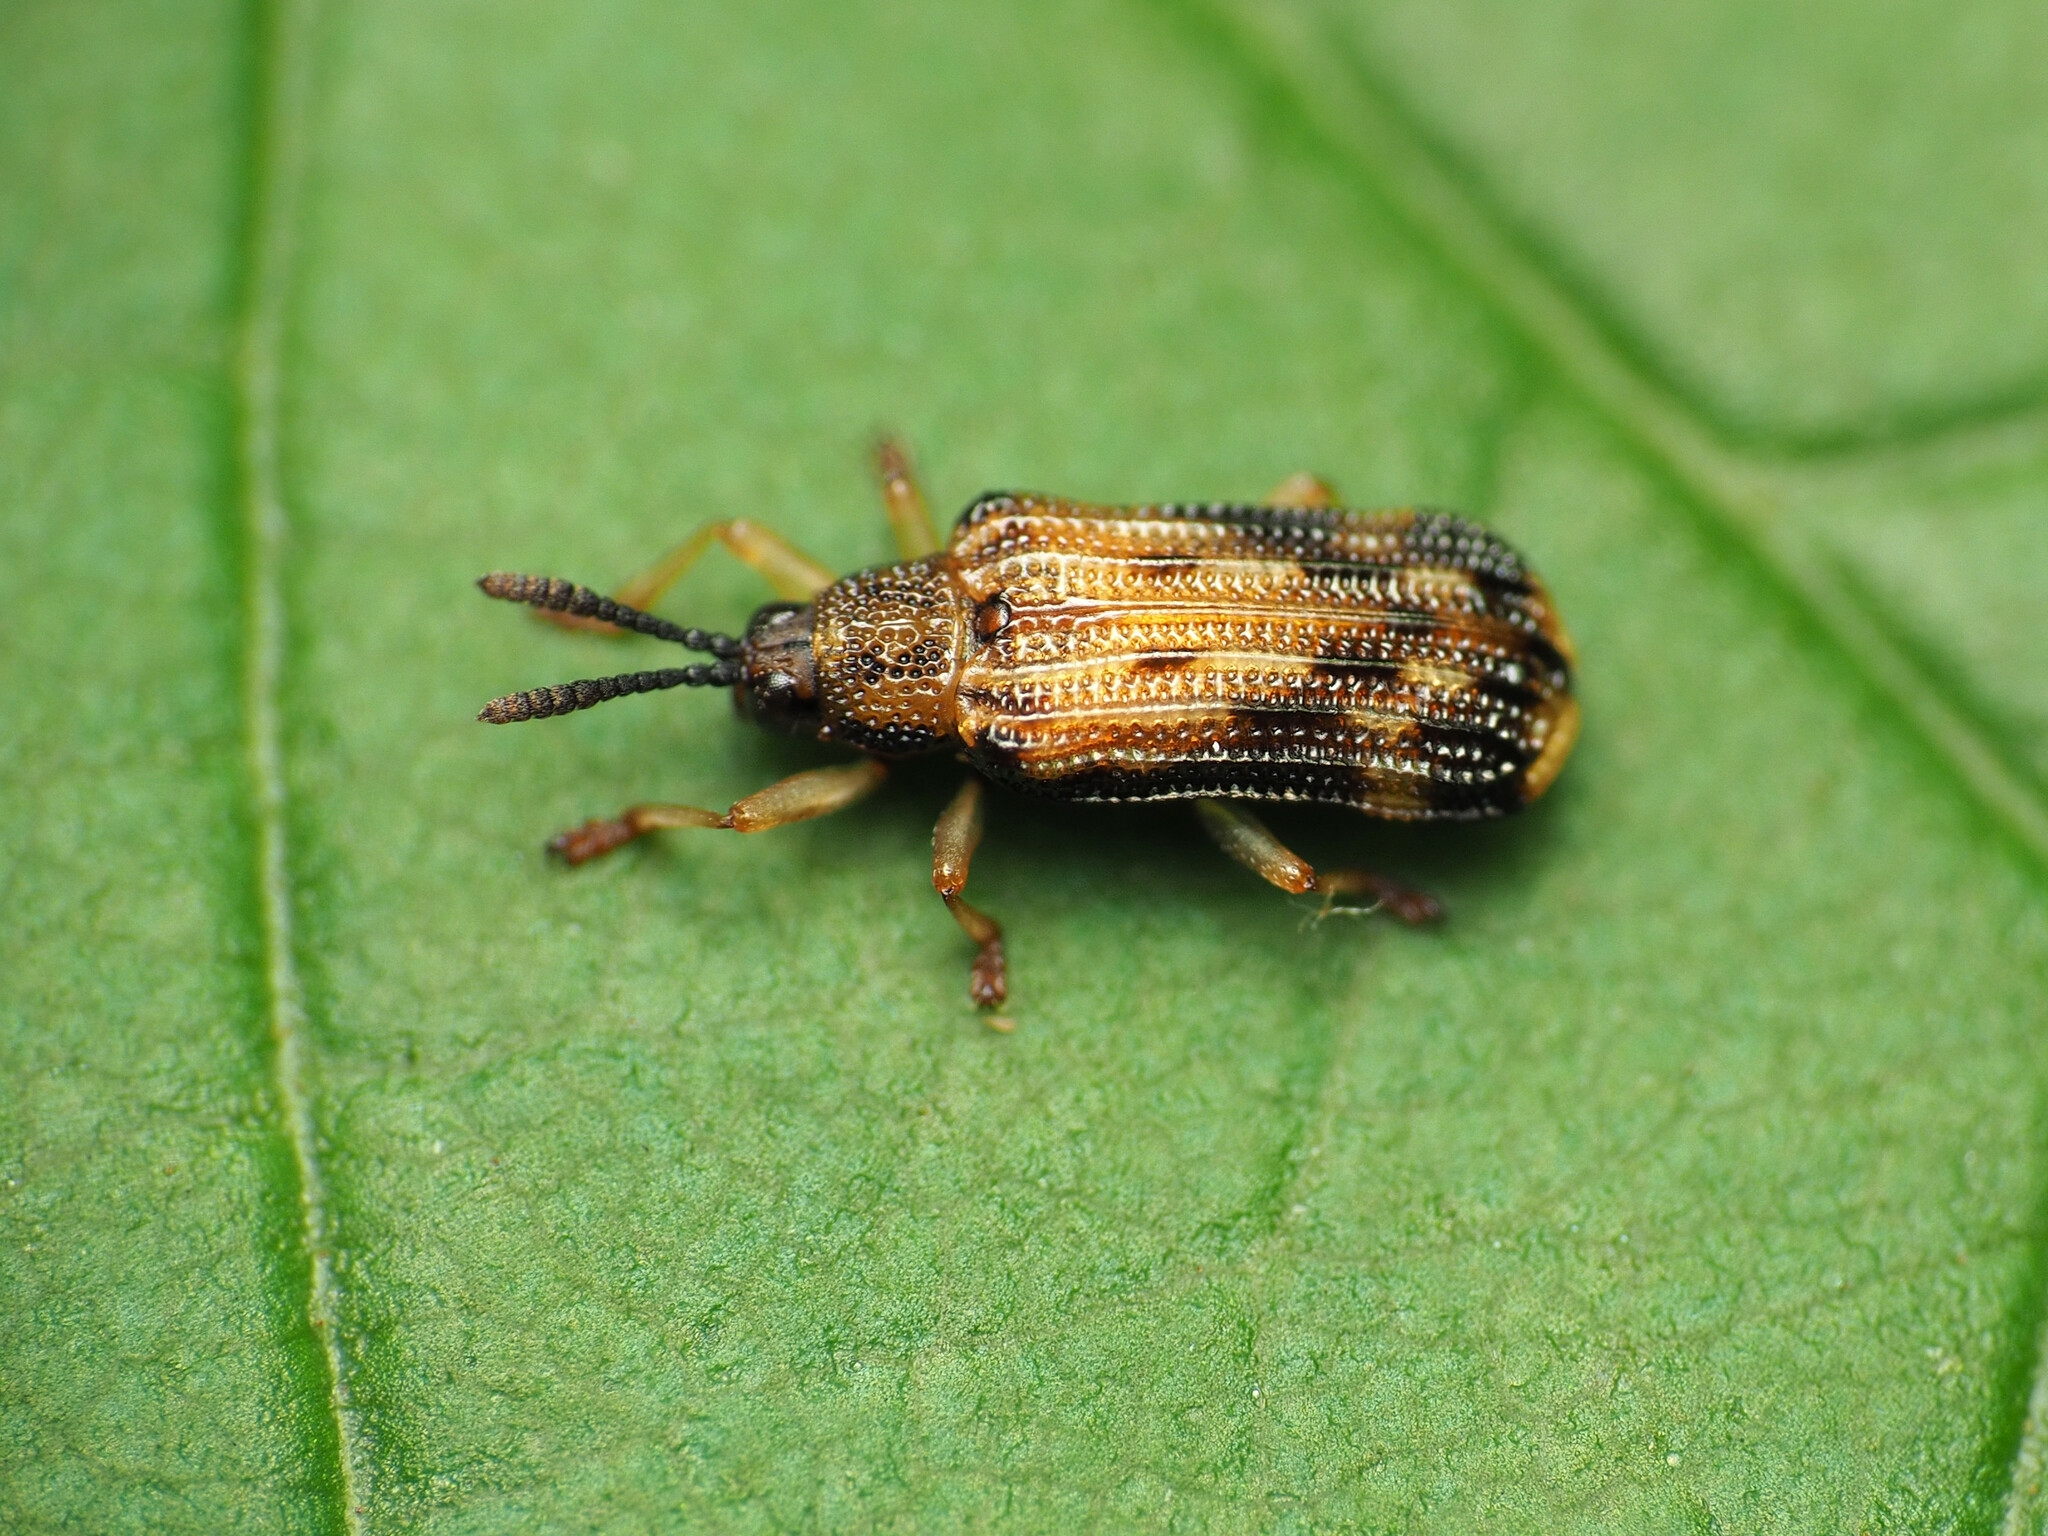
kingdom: Animalia
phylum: Arthropoda
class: Insecta
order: Coleoptera
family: Chrysomelidae
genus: Sumitrosis
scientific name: Sumitrosis inaequalis
